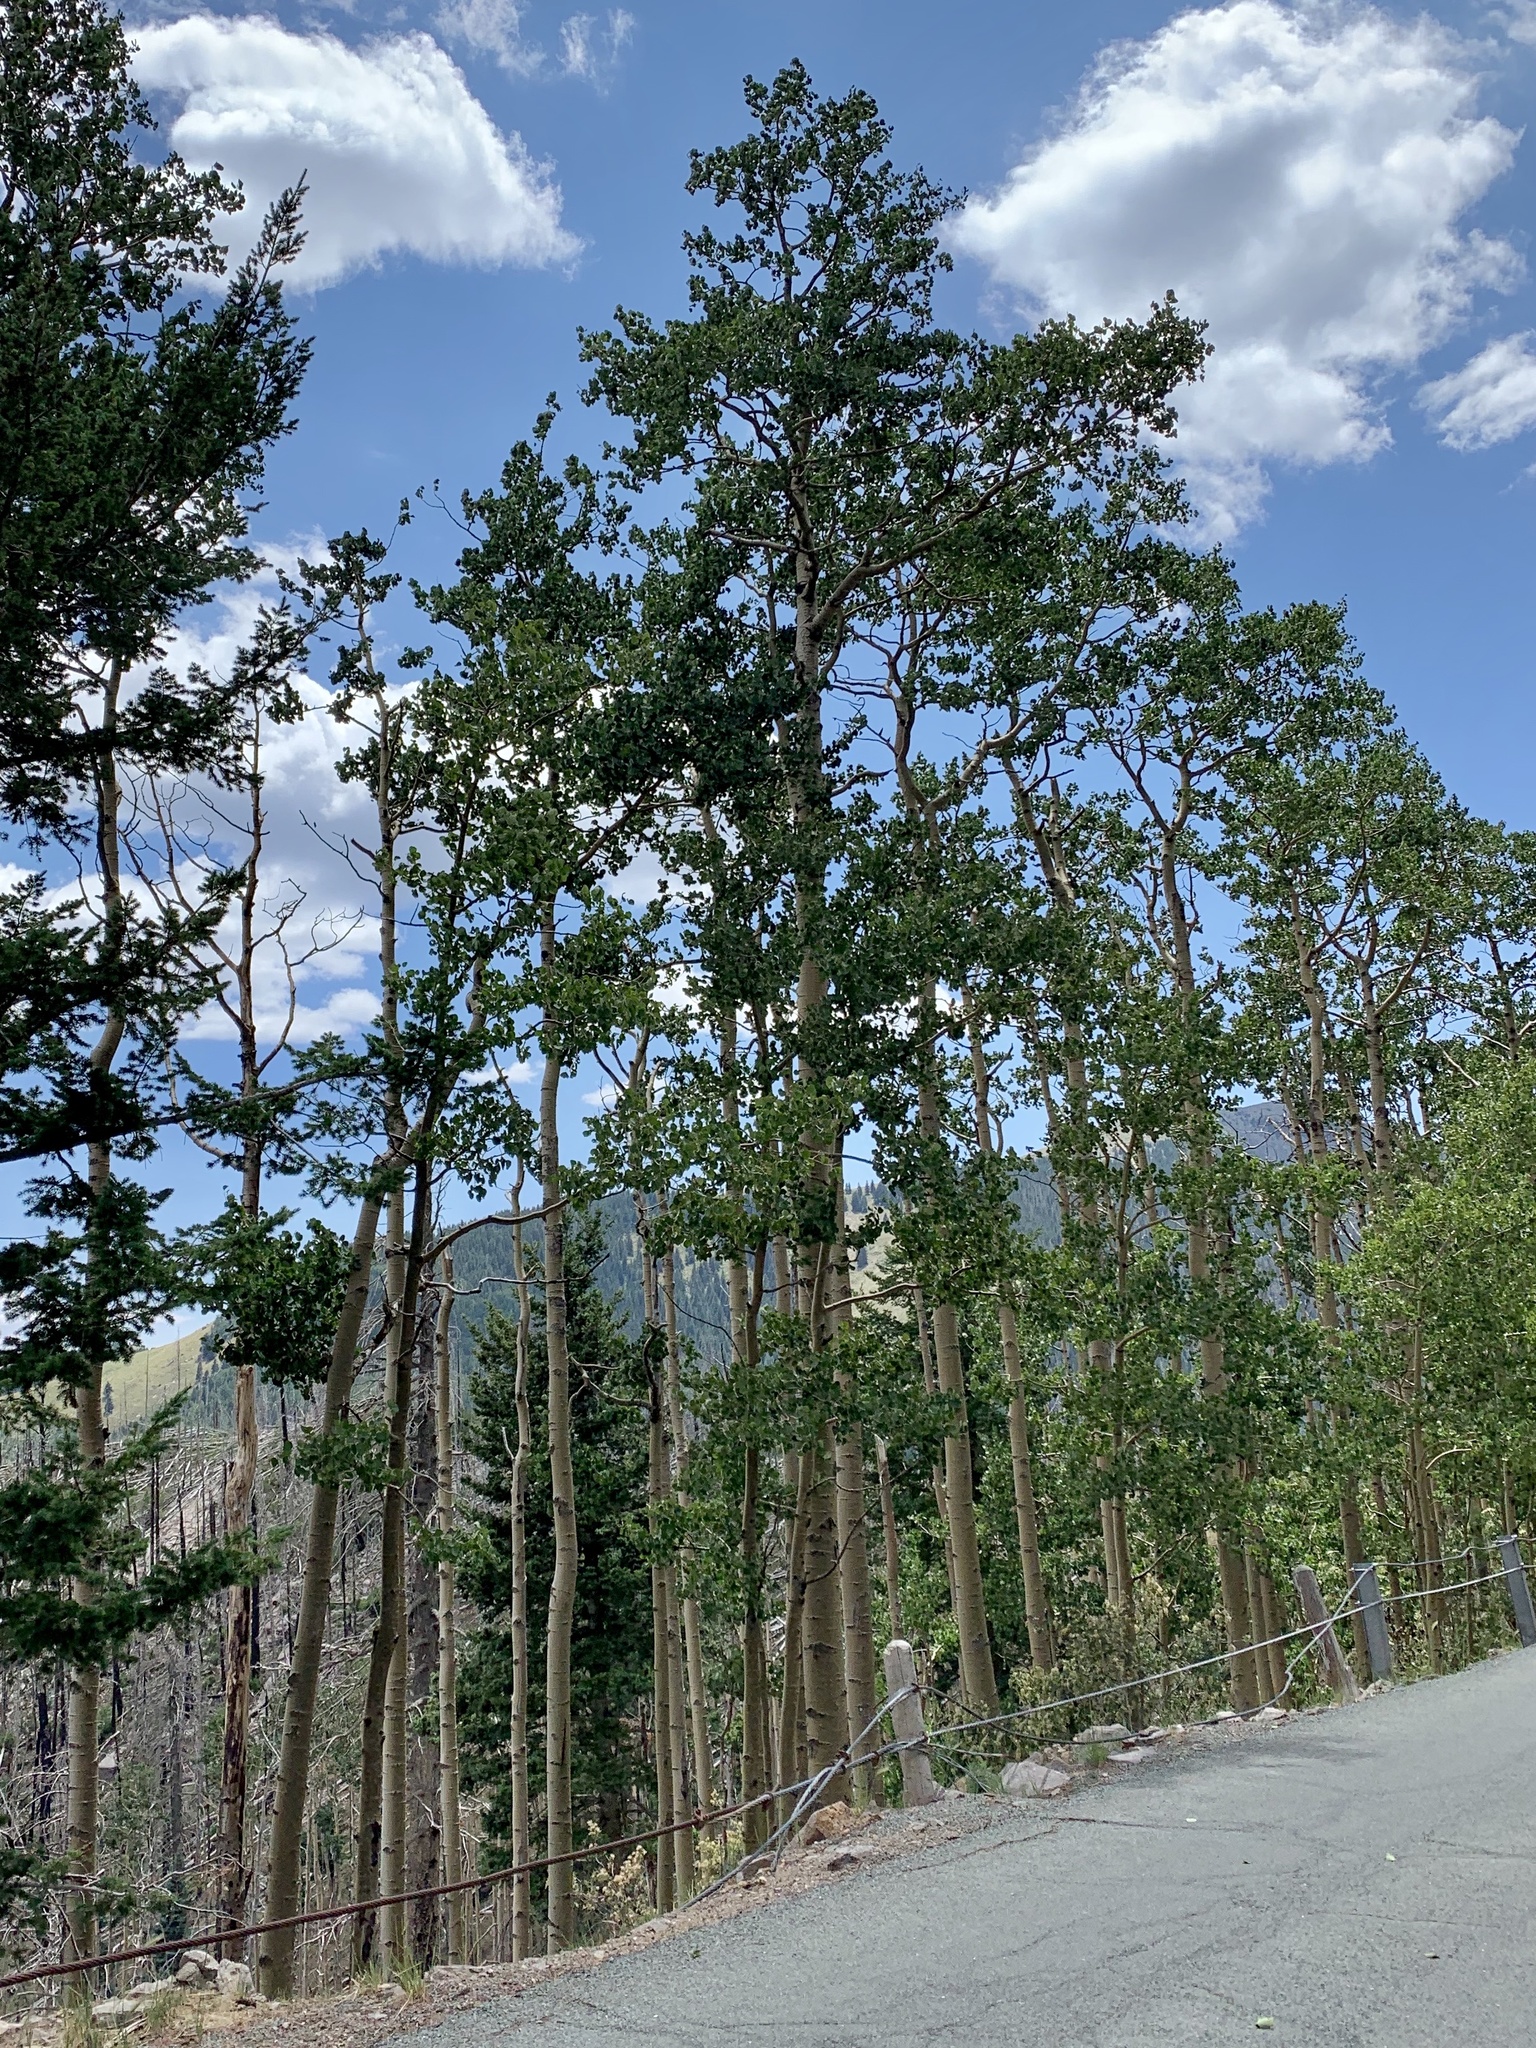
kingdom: Plantae
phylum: Tracheophyta
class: Magnoliopsida
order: Malpighiales
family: Salicaceae
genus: Populus
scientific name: Populus tremuloides
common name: Quaking aspen
